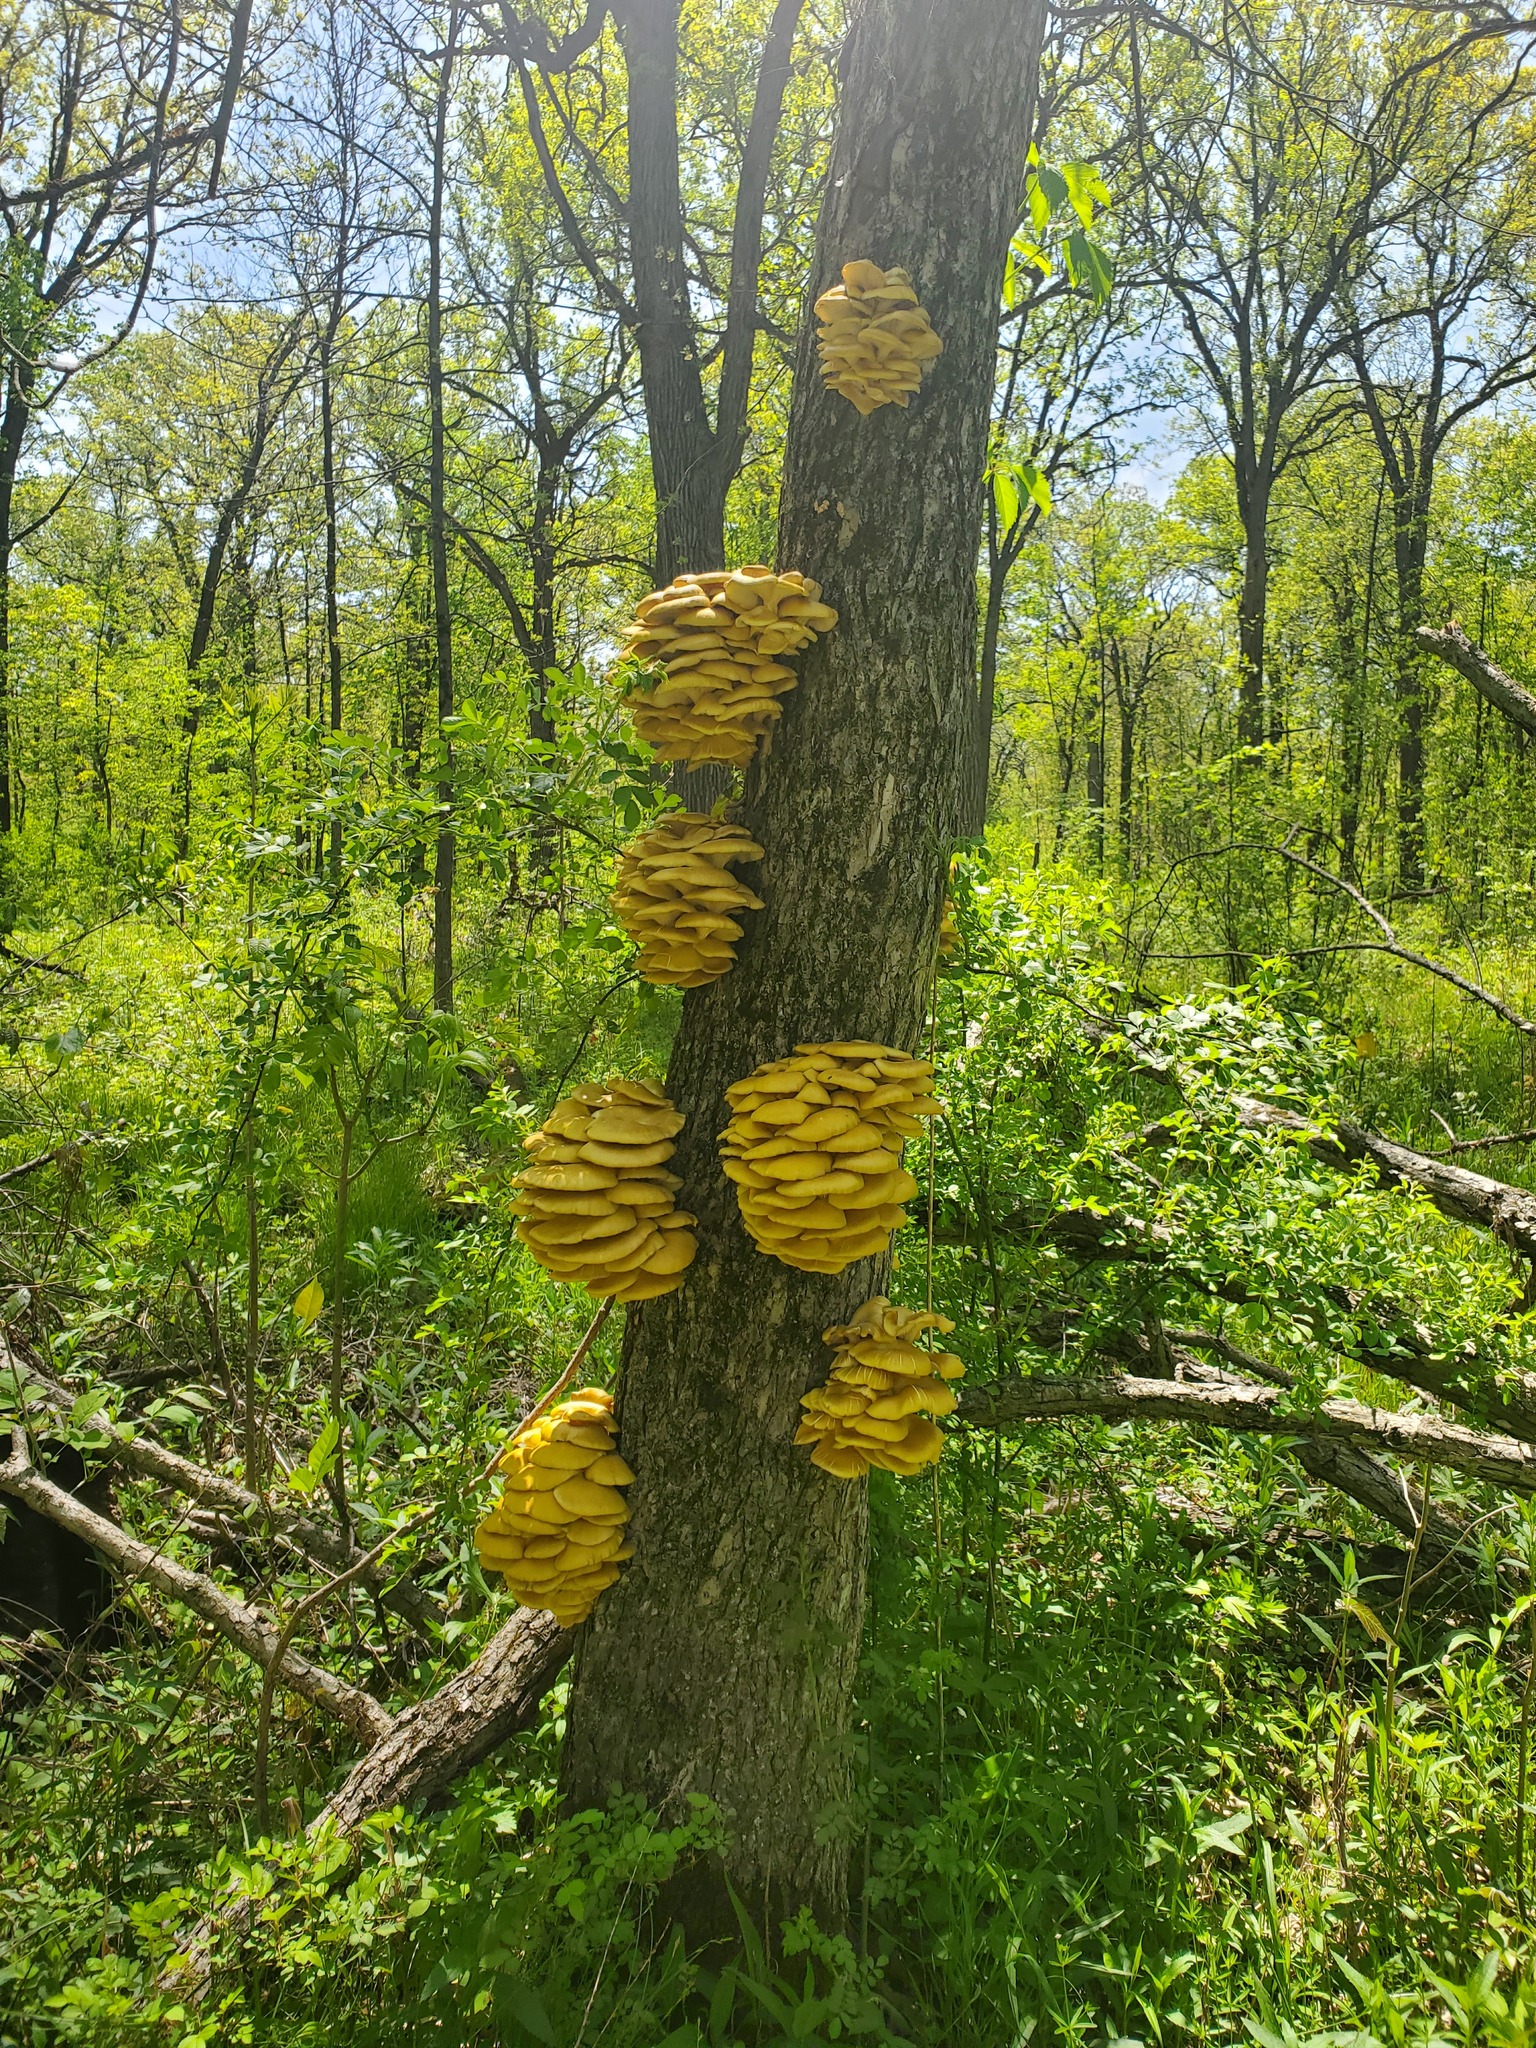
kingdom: Fungi
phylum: Basidiomycota
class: Agaricomycetes
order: Agaricales
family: Pleurotaceae
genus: Pleurotus
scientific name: Pleurotus citrinopileatus
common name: Golden oyster mushroom
